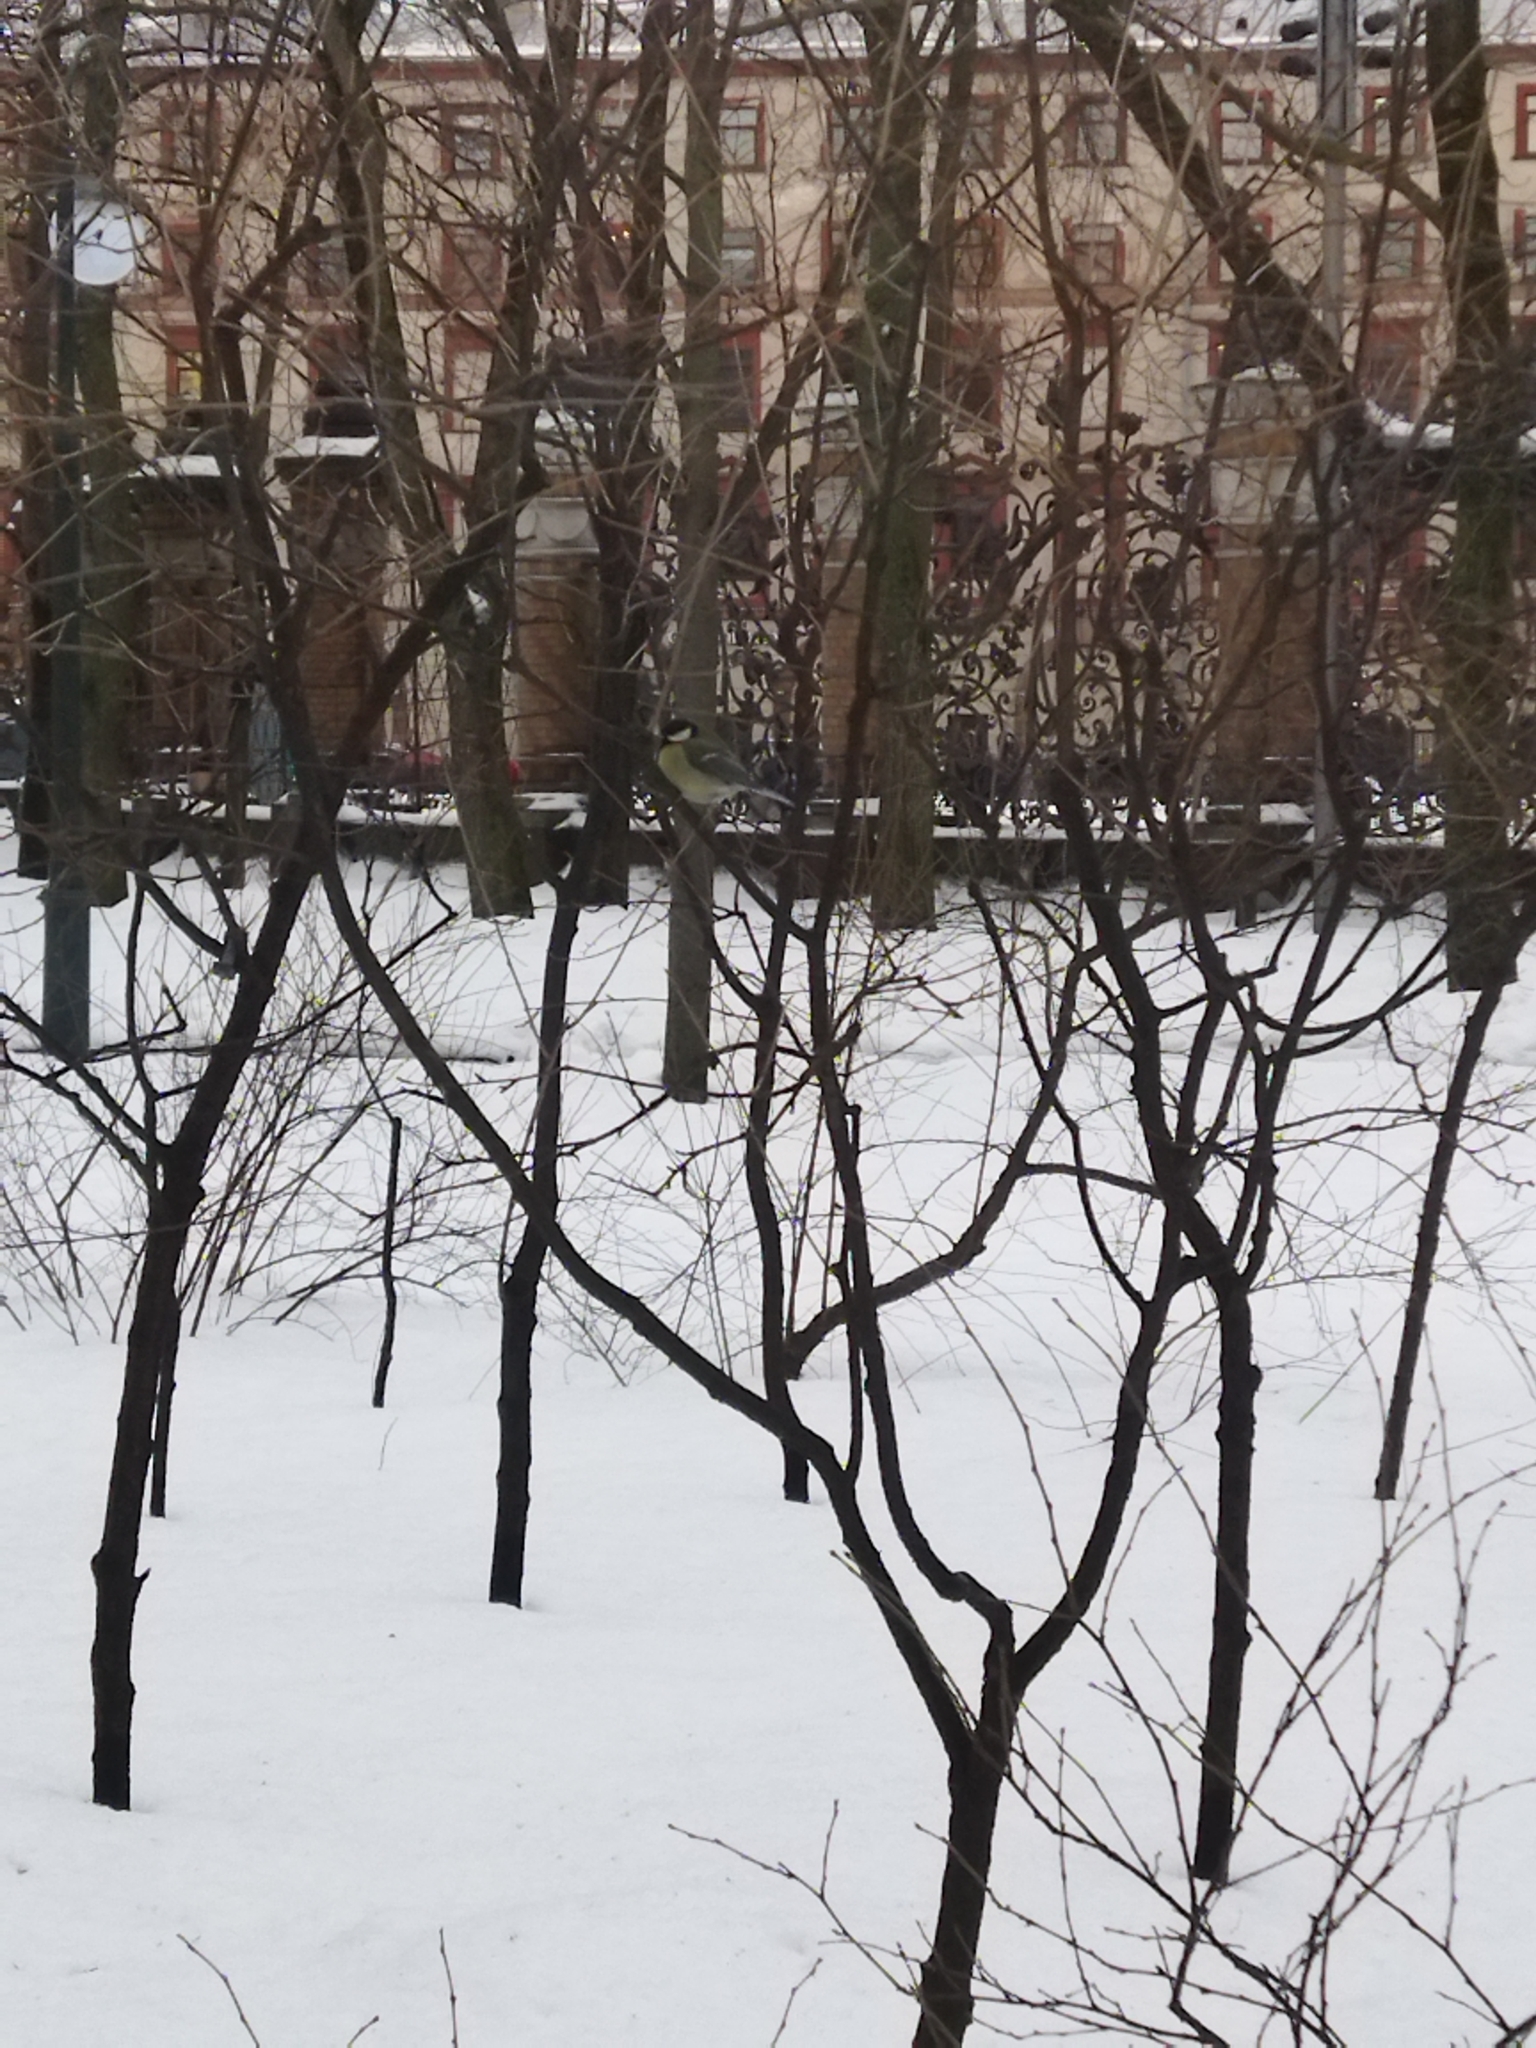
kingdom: Animalia
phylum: Chordata
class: Aves
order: Passeriformes
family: Paridae
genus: Parus
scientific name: Parus major
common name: Great tit
